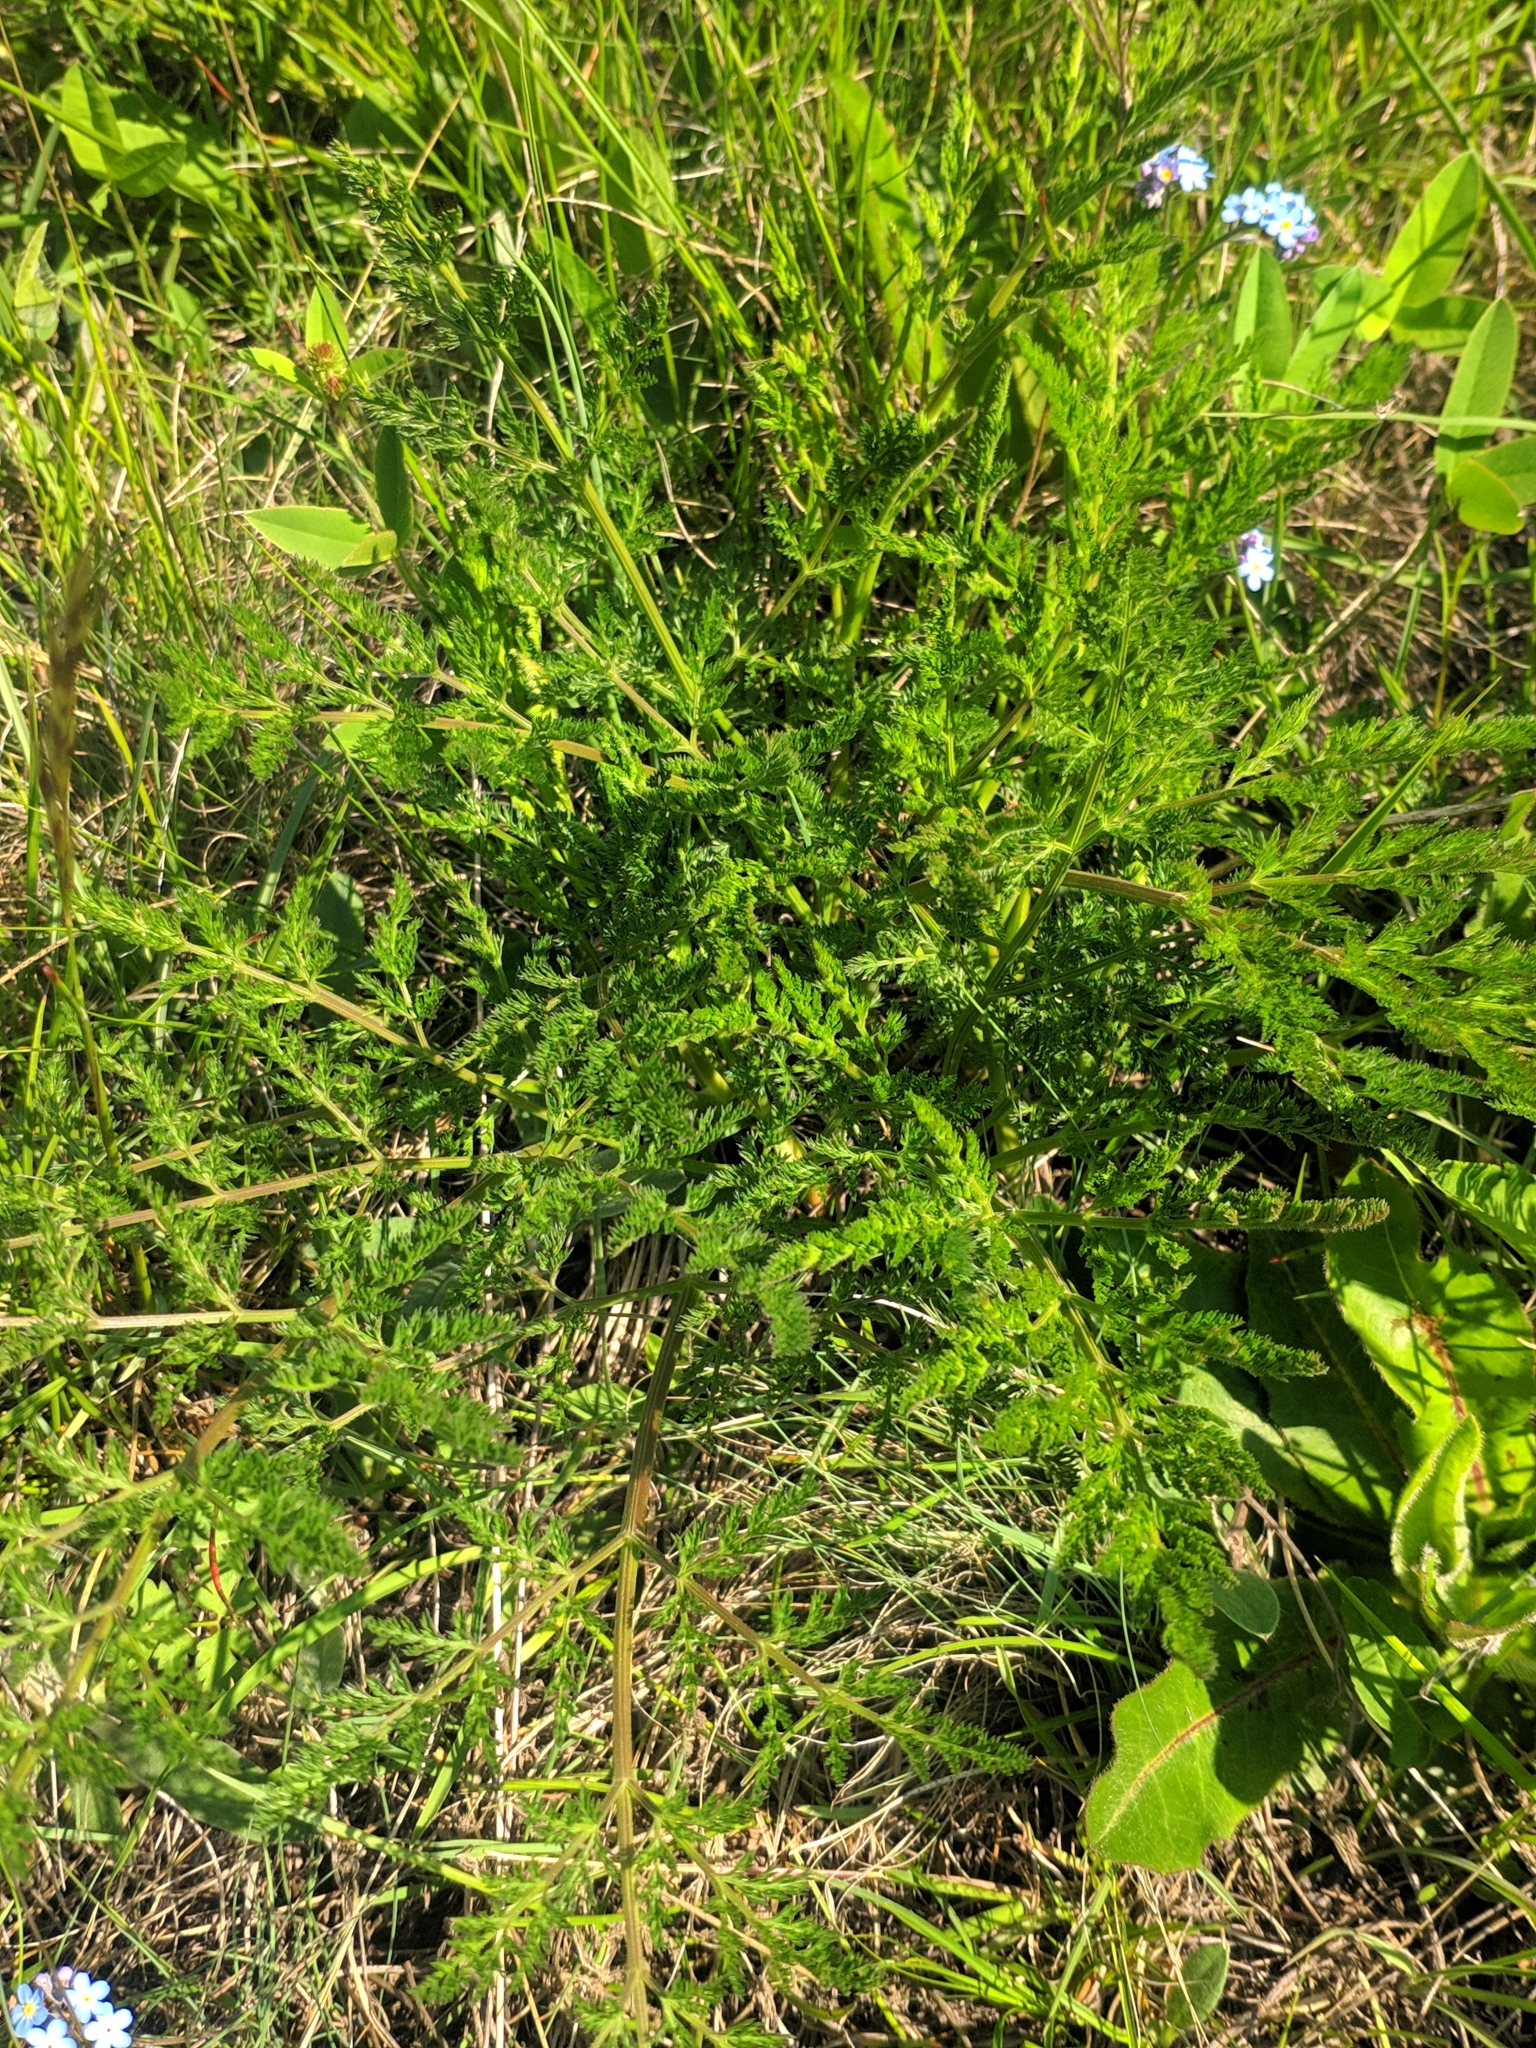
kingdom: Plantae
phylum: Tracheophyta
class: Magnoliopsida
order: Apiales
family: Apiaceae
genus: Laserpitium
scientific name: Laserpitium halleri
